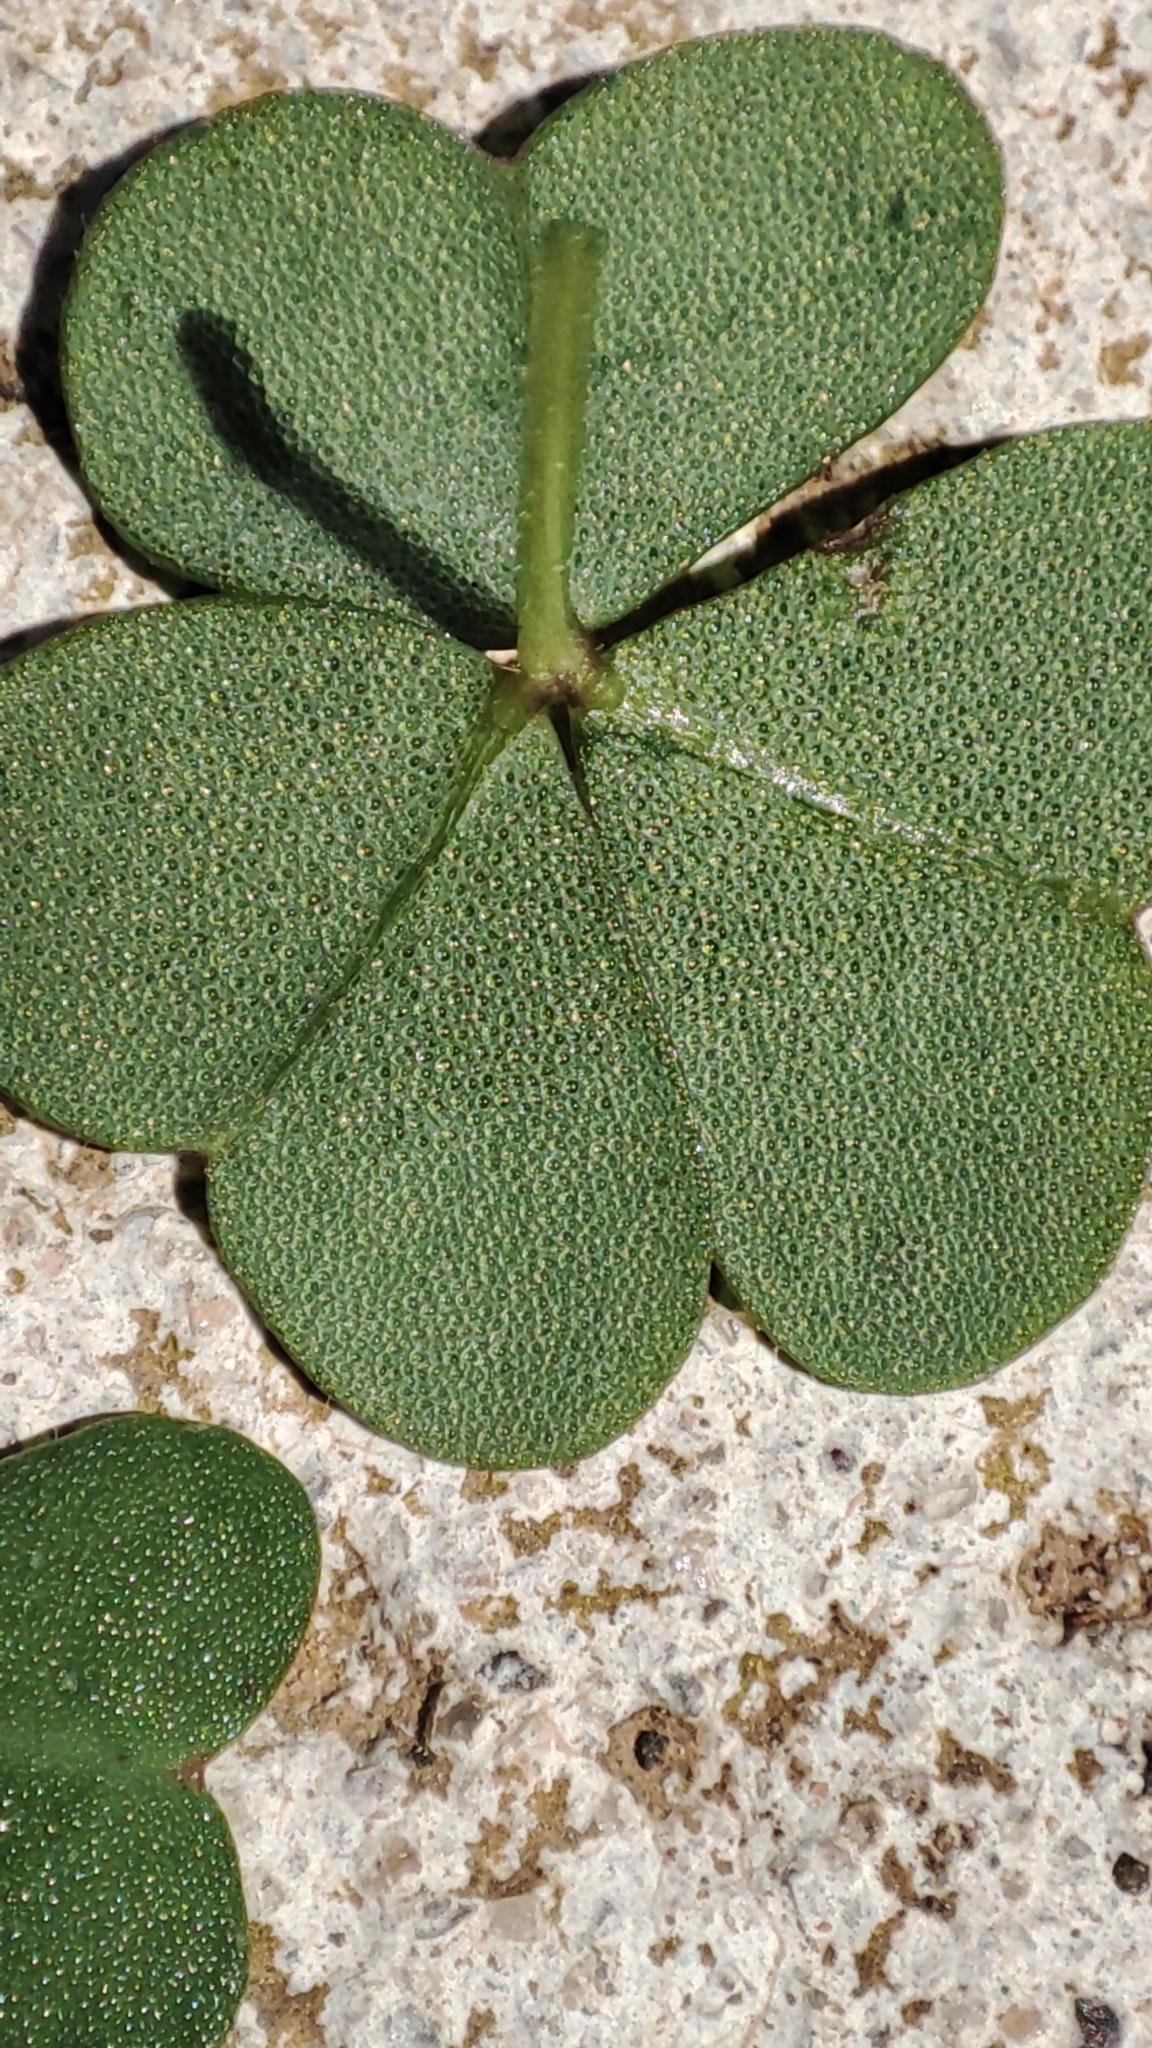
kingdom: Plantae
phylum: Tracheophyta
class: Magnoliopsida
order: Oxalidales
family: Oxalidaceae
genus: Oxalis
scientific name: Oxalis pes-caprae
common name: Bermuda-buttercup
